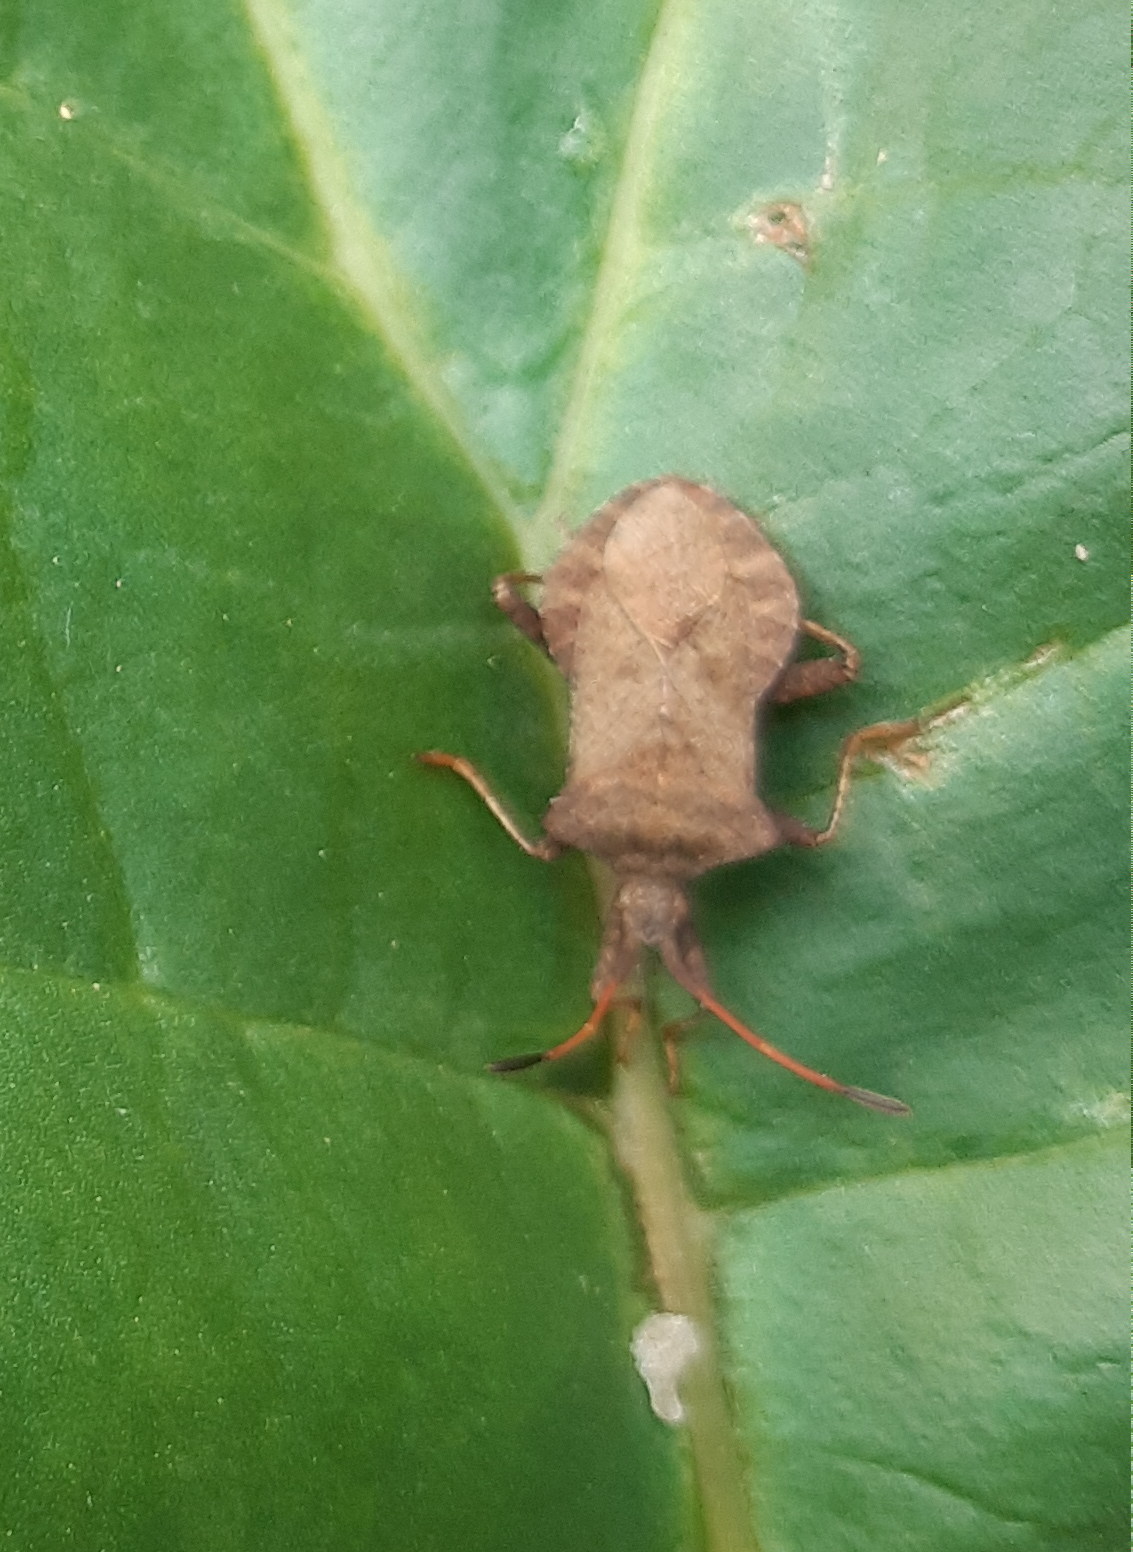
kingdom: Animalia
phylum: Arthropoda
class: Insecta
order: Hemiptera
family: Coreidae
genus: Coreus
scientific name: Coreus marginatus
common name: Dock bug
